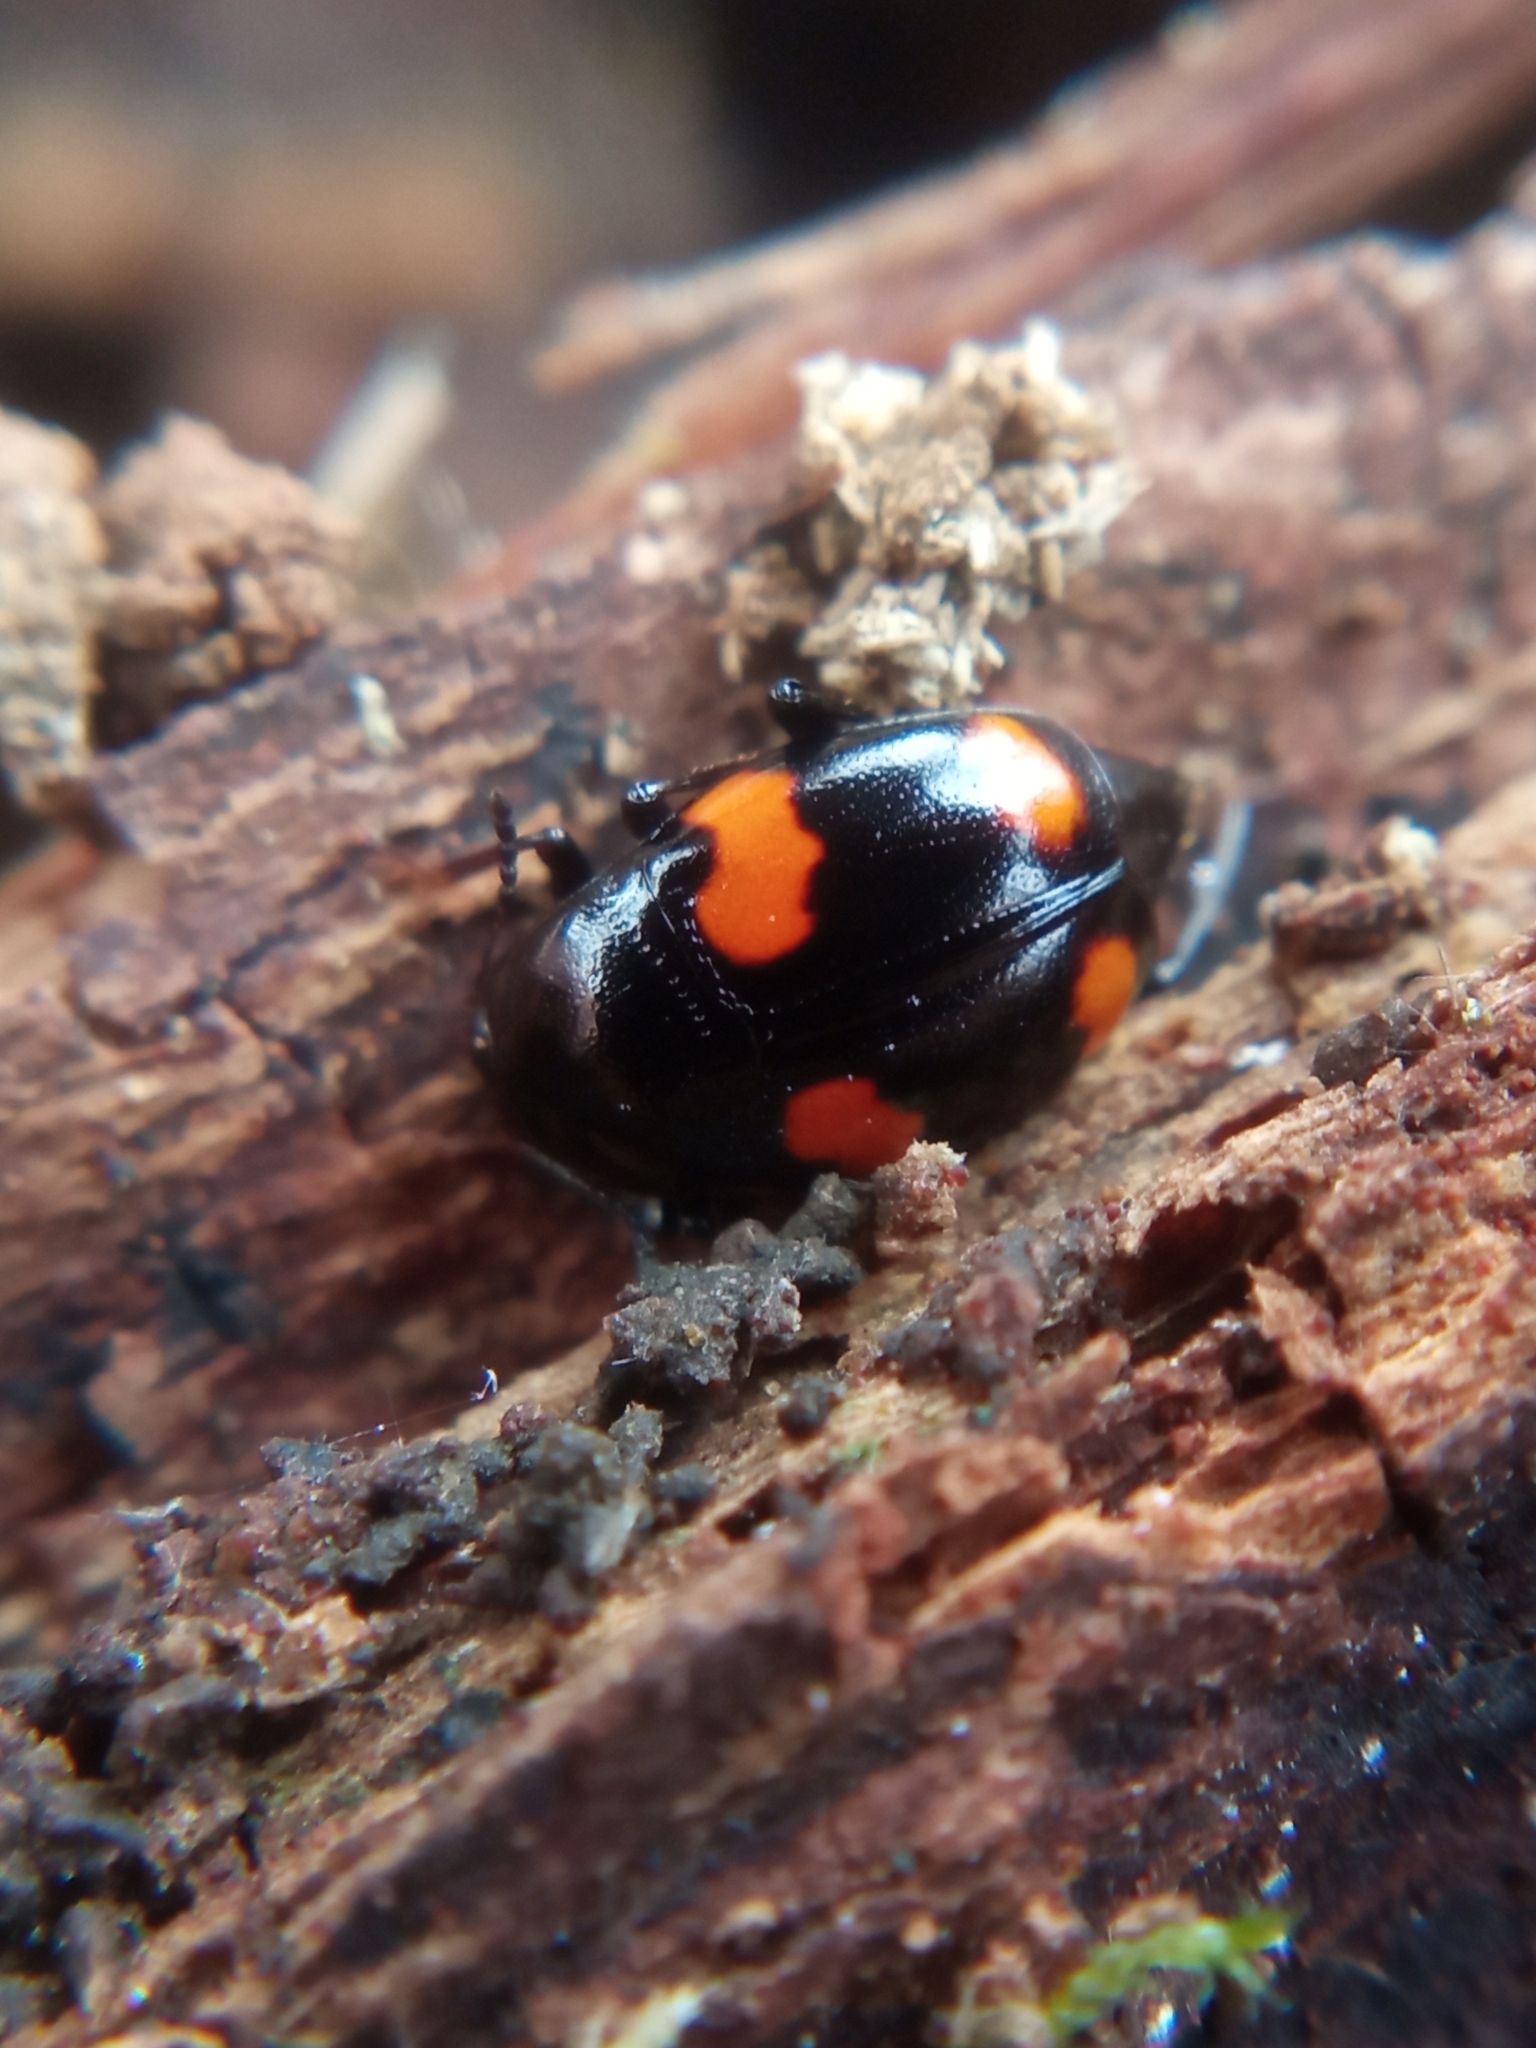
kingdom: Animalia
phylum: Arthropoda
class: Insecta
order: Coleoptera
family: Staphylinidae
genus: Scaphidium
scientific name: Scaphidium quadrimaculatum
